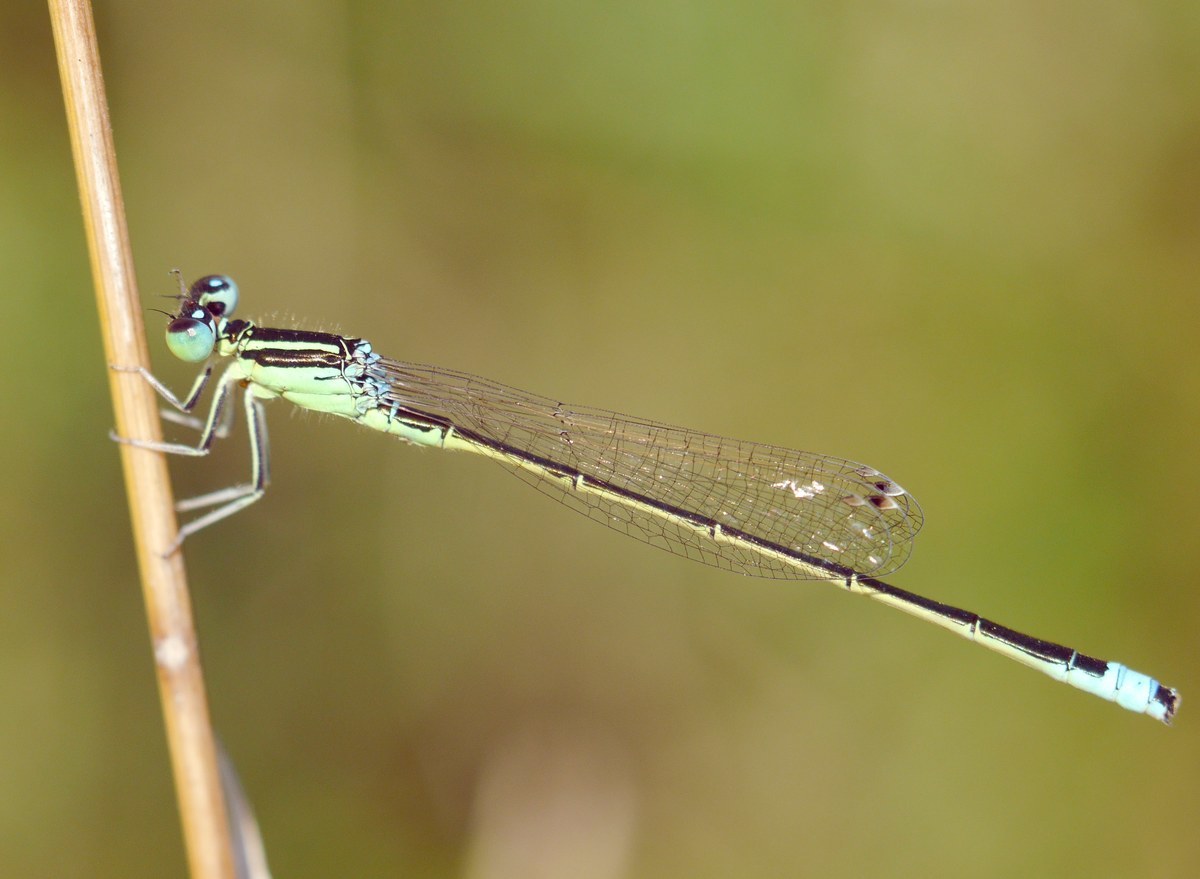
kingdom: Animalia
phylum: Arthropoda
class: Insecta
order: Odonata
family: Coenagrionidae
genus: Ischnura
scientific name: Ischnura pumilio
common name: Scarce blue-tailed damselfly
